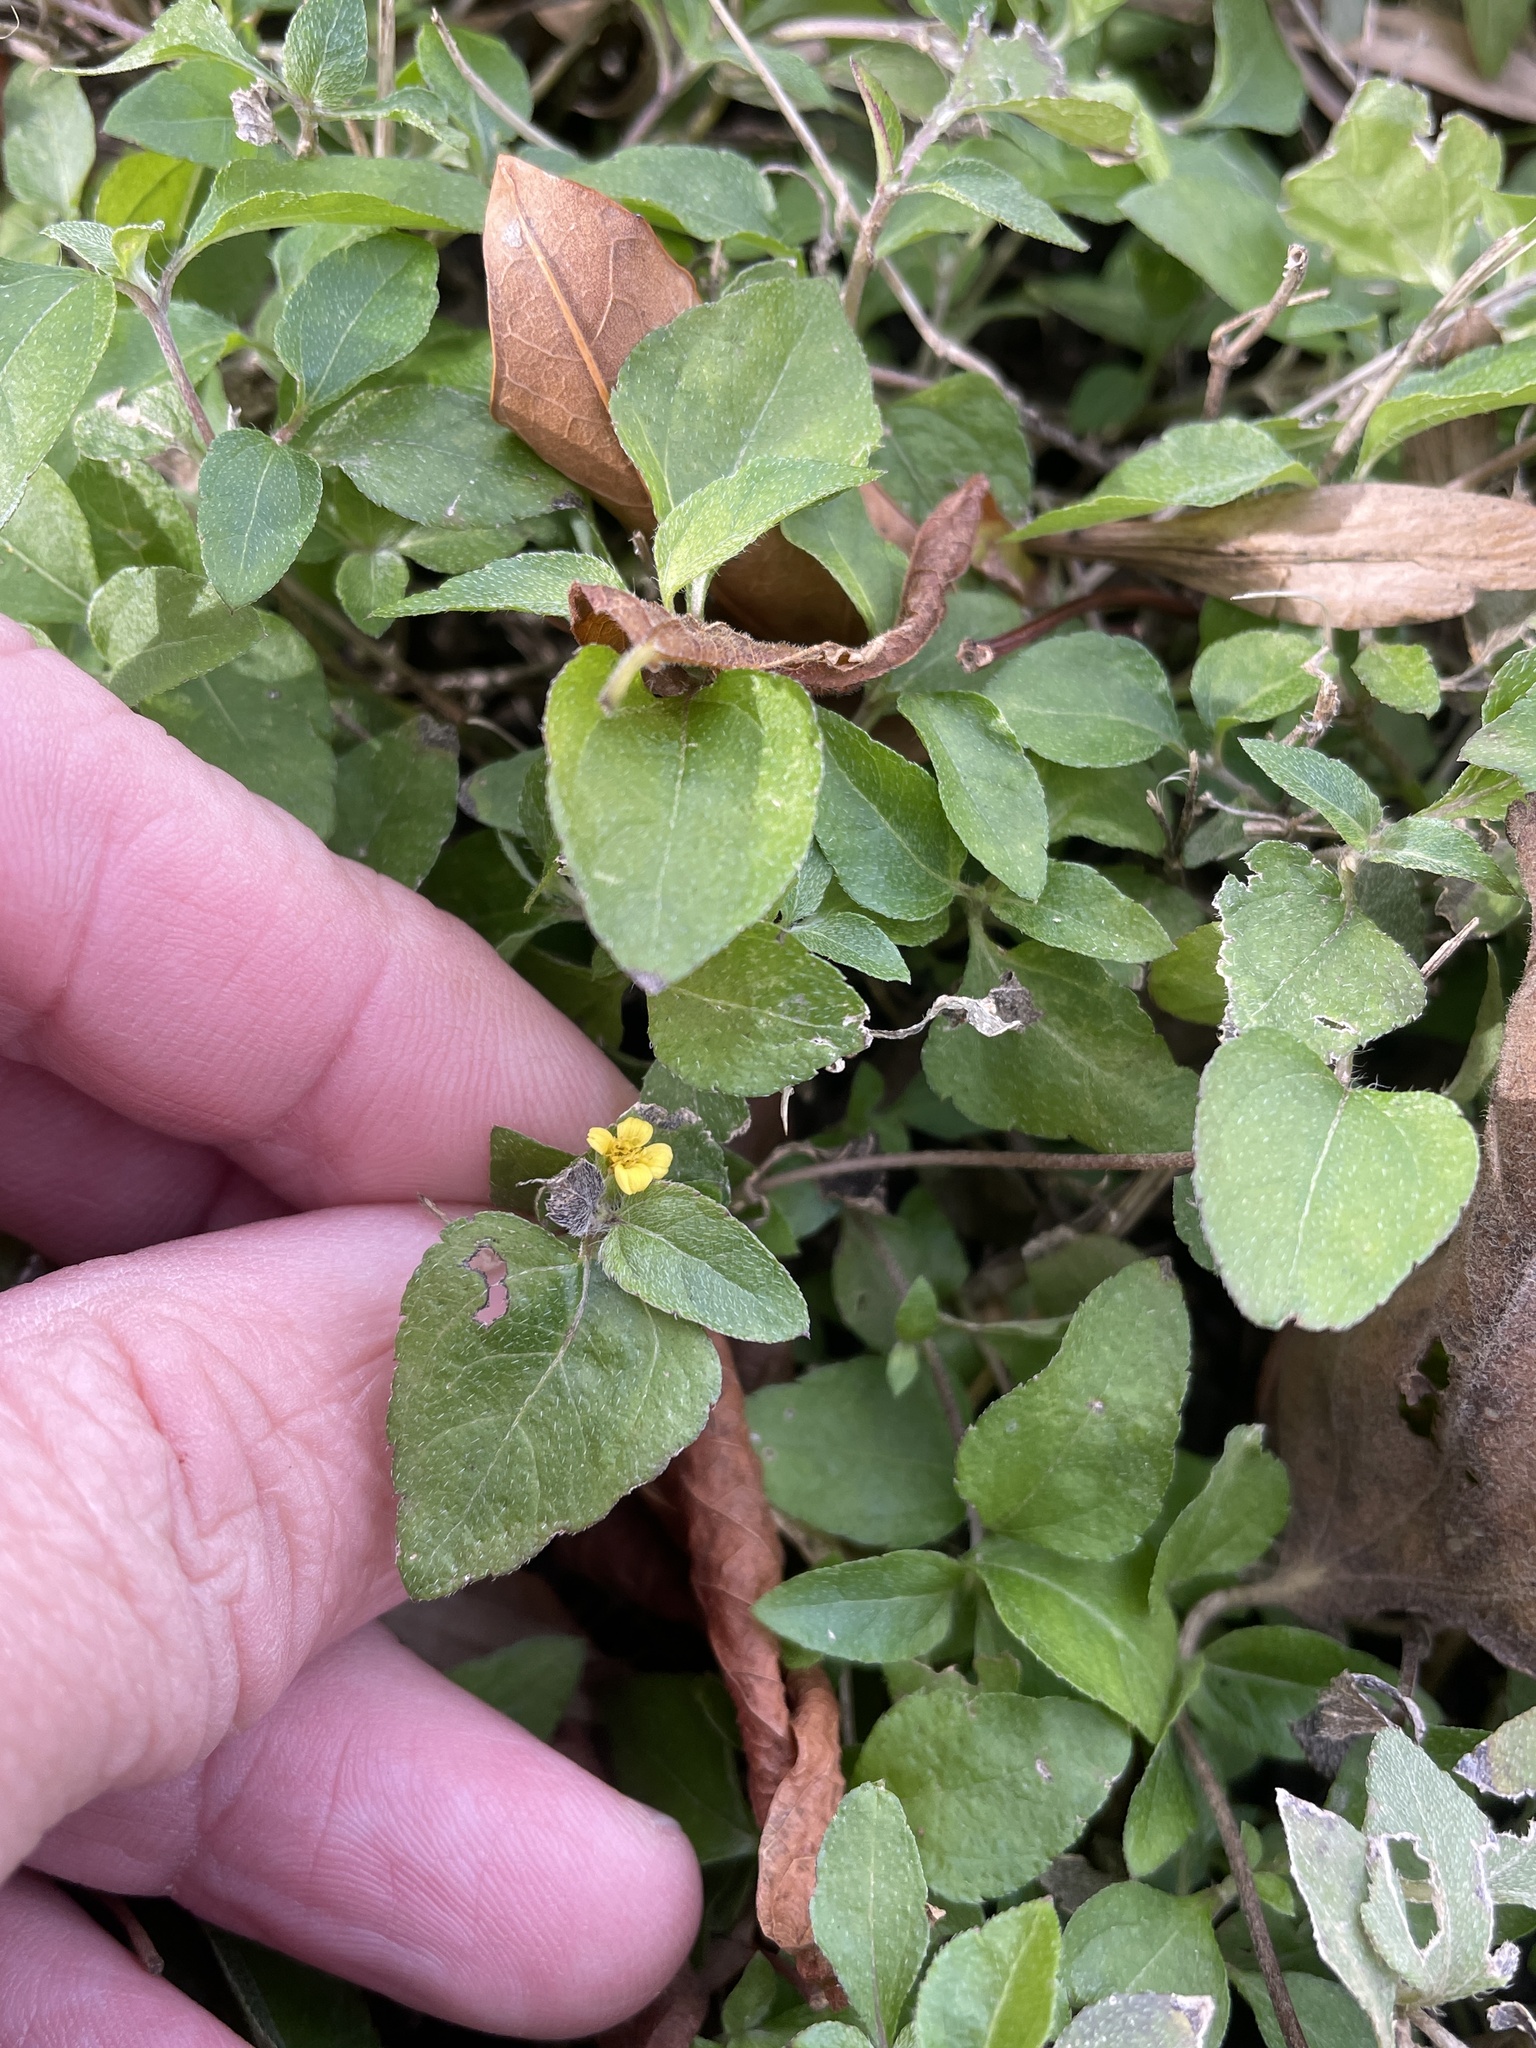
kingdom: Plantae
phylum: Tracheophyta
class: Magnoliopsida
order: Asterales
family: Asteraceae
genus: Calyptocarpus
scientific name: Calyptocarpus vialis
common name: Straggler daisy
